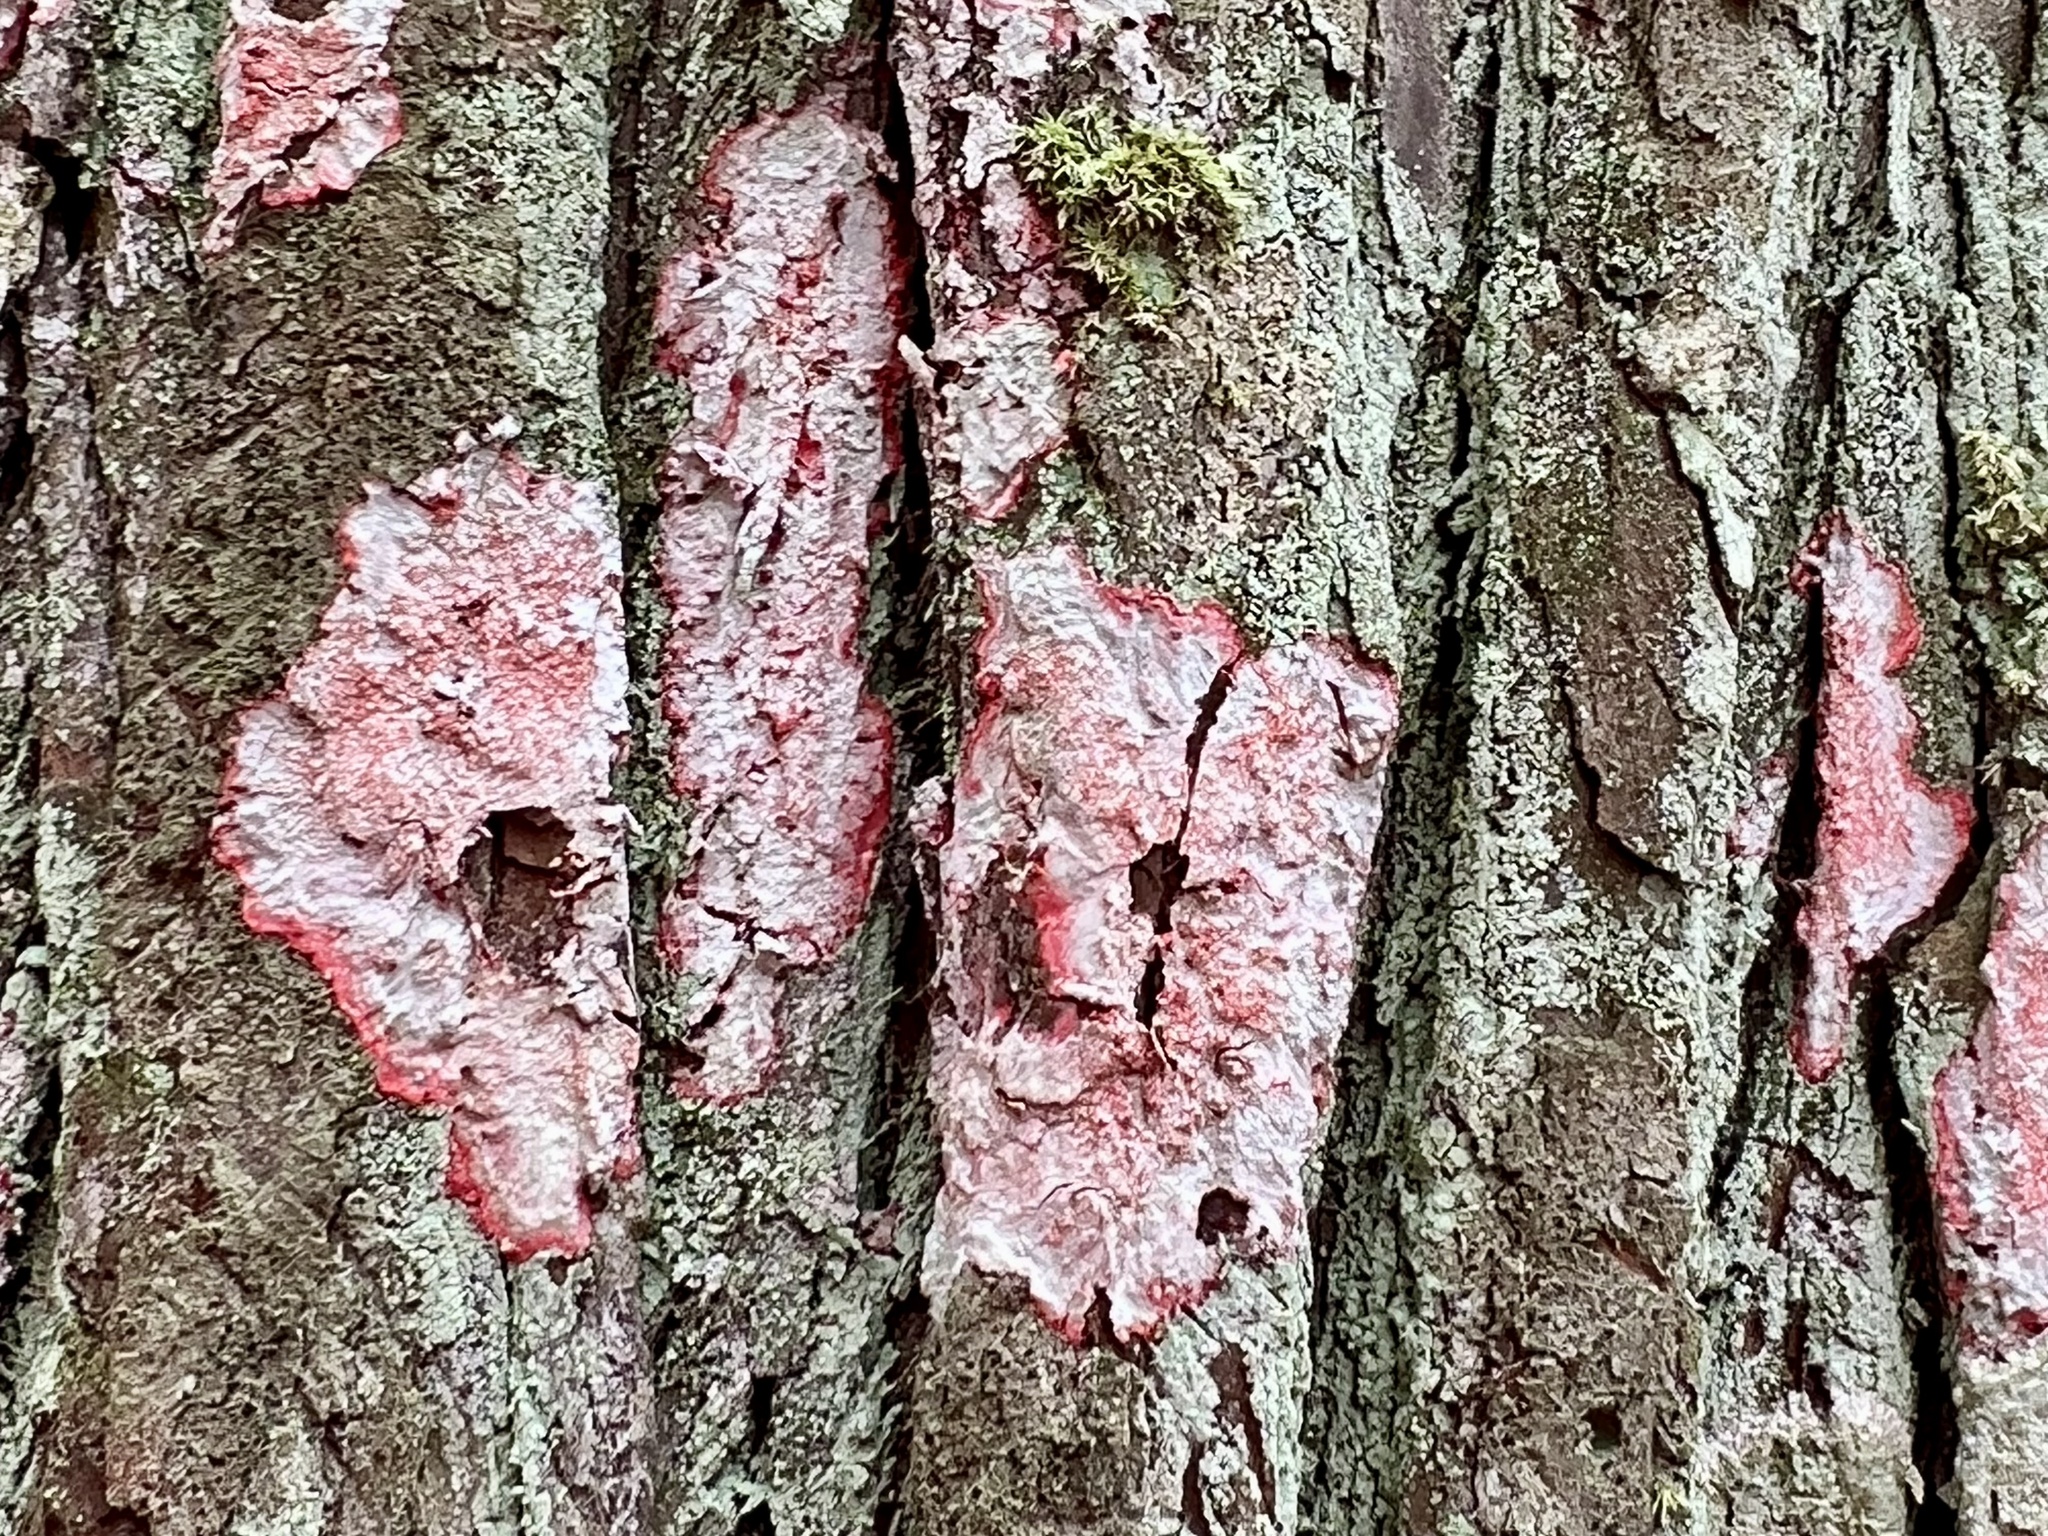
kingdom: Fungi
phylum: Ascomycota
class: Arthoniomycetes
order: Arthoniales
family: Arthoniaceae
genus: Herpothallon
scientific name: Herpothallon rubrocinctum
